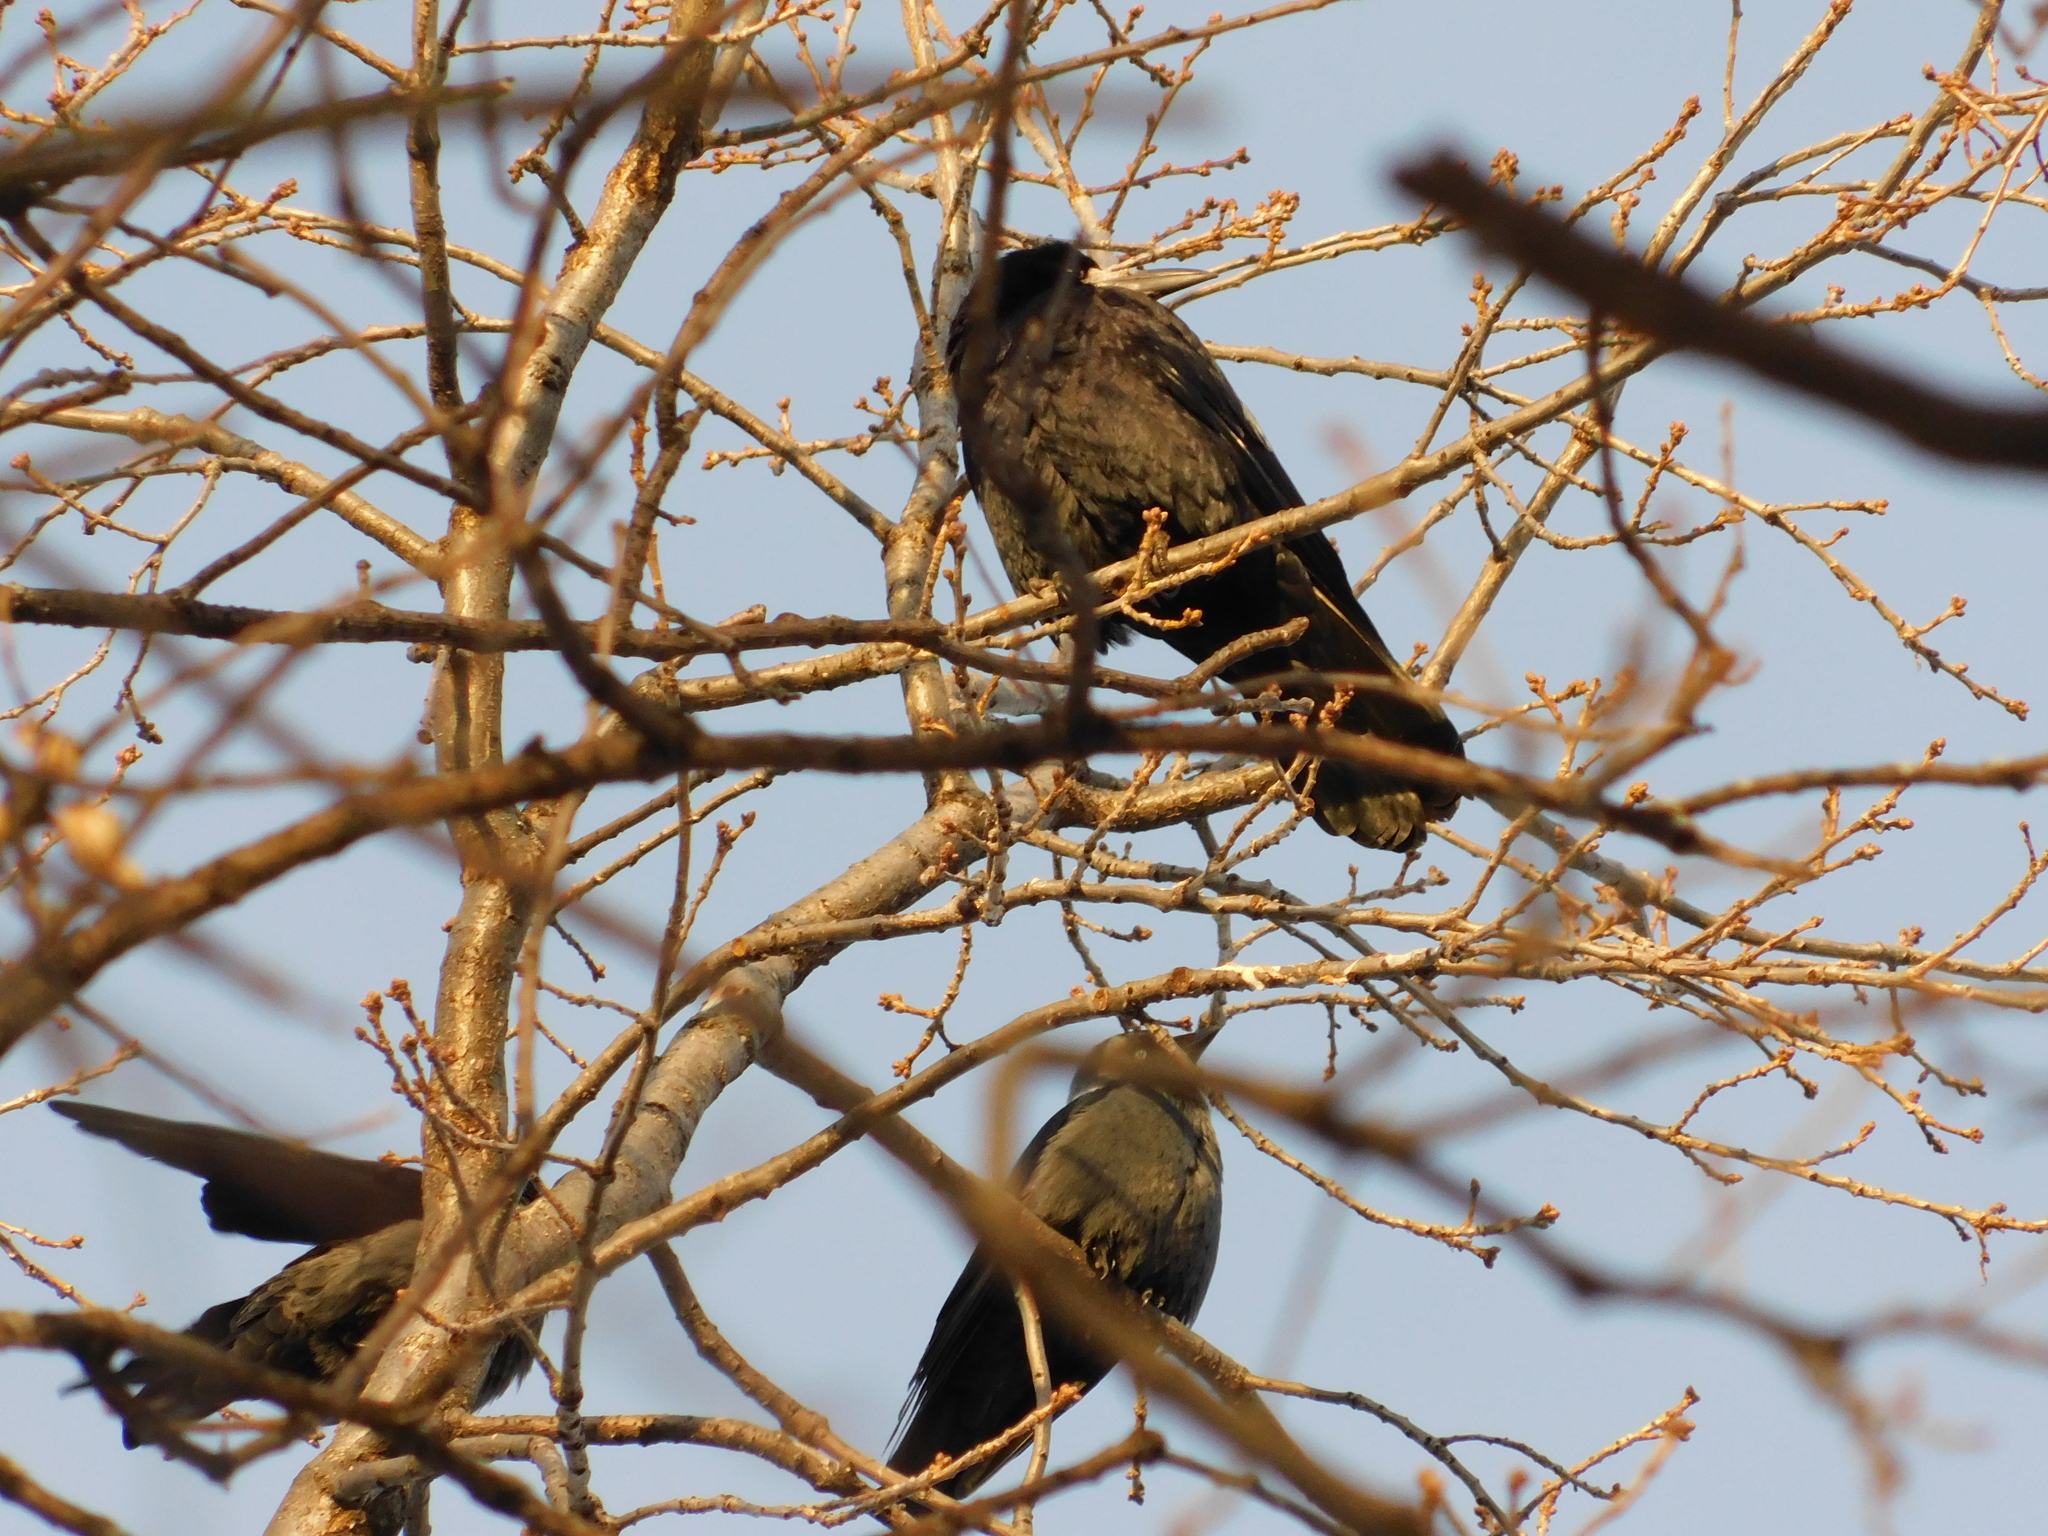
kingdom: Animalia
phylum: Chordata
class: Aves
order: Passeriformes
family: Corvidae
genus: Coloeus
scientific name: Coloeus monedula
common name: Western jackdaw
